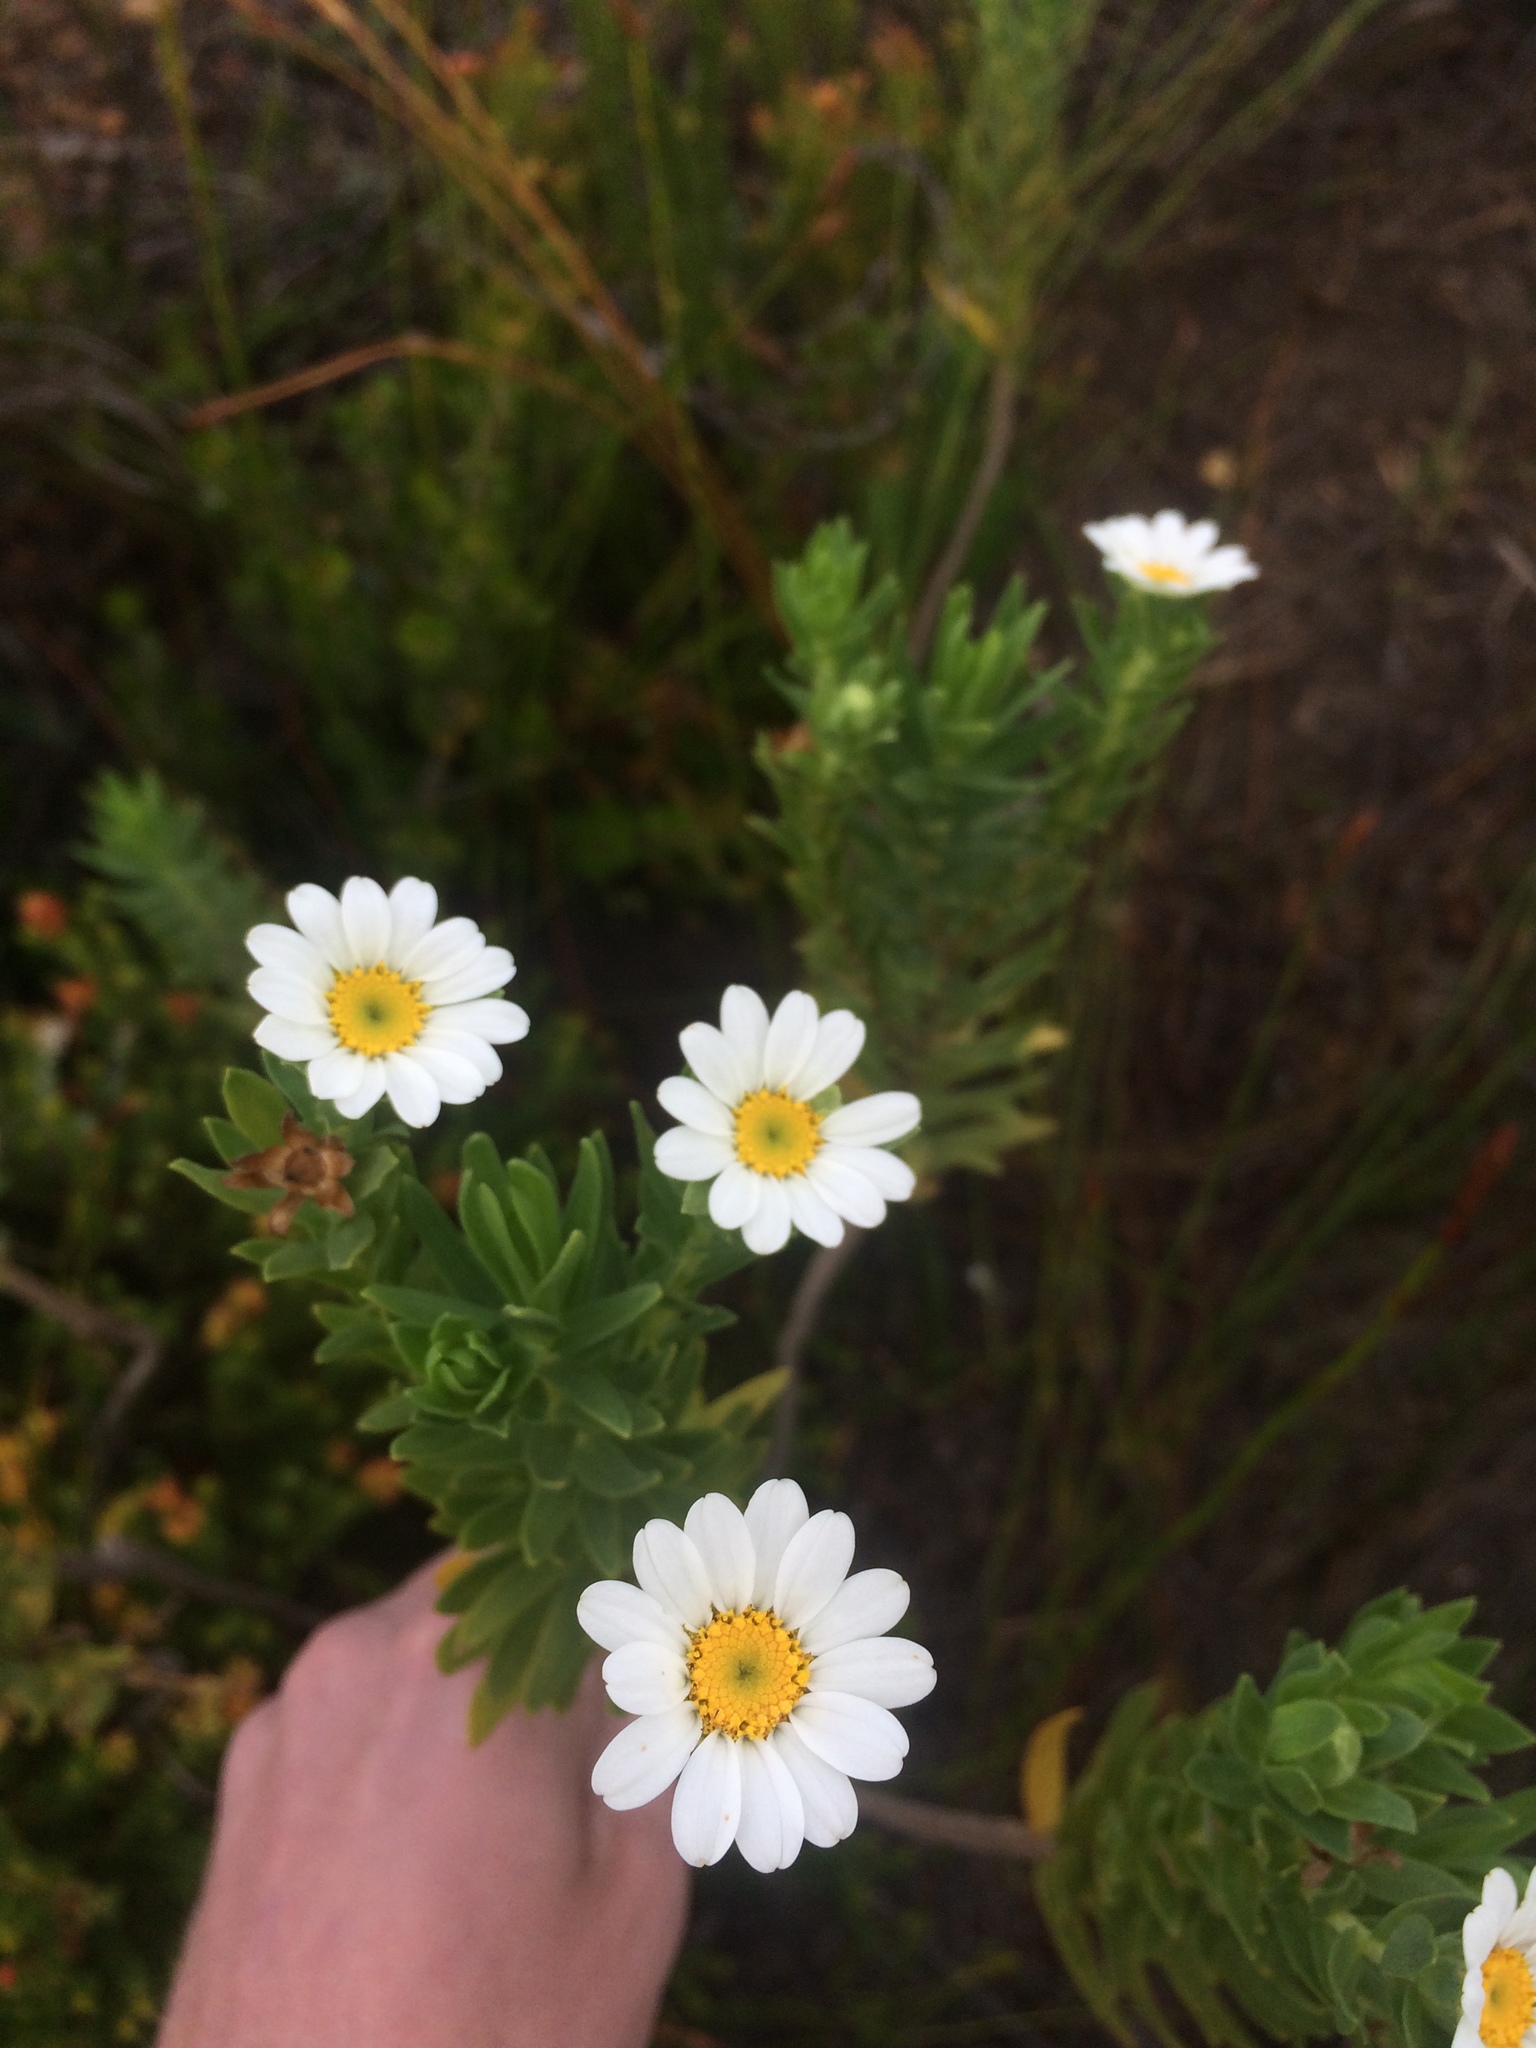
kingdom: Plantae
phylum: Tracheophyta
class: Magnoliopsida
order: Asterales
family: Asteraceae
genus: Osmitopsis
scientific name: Osmitopsis asteriscoides
